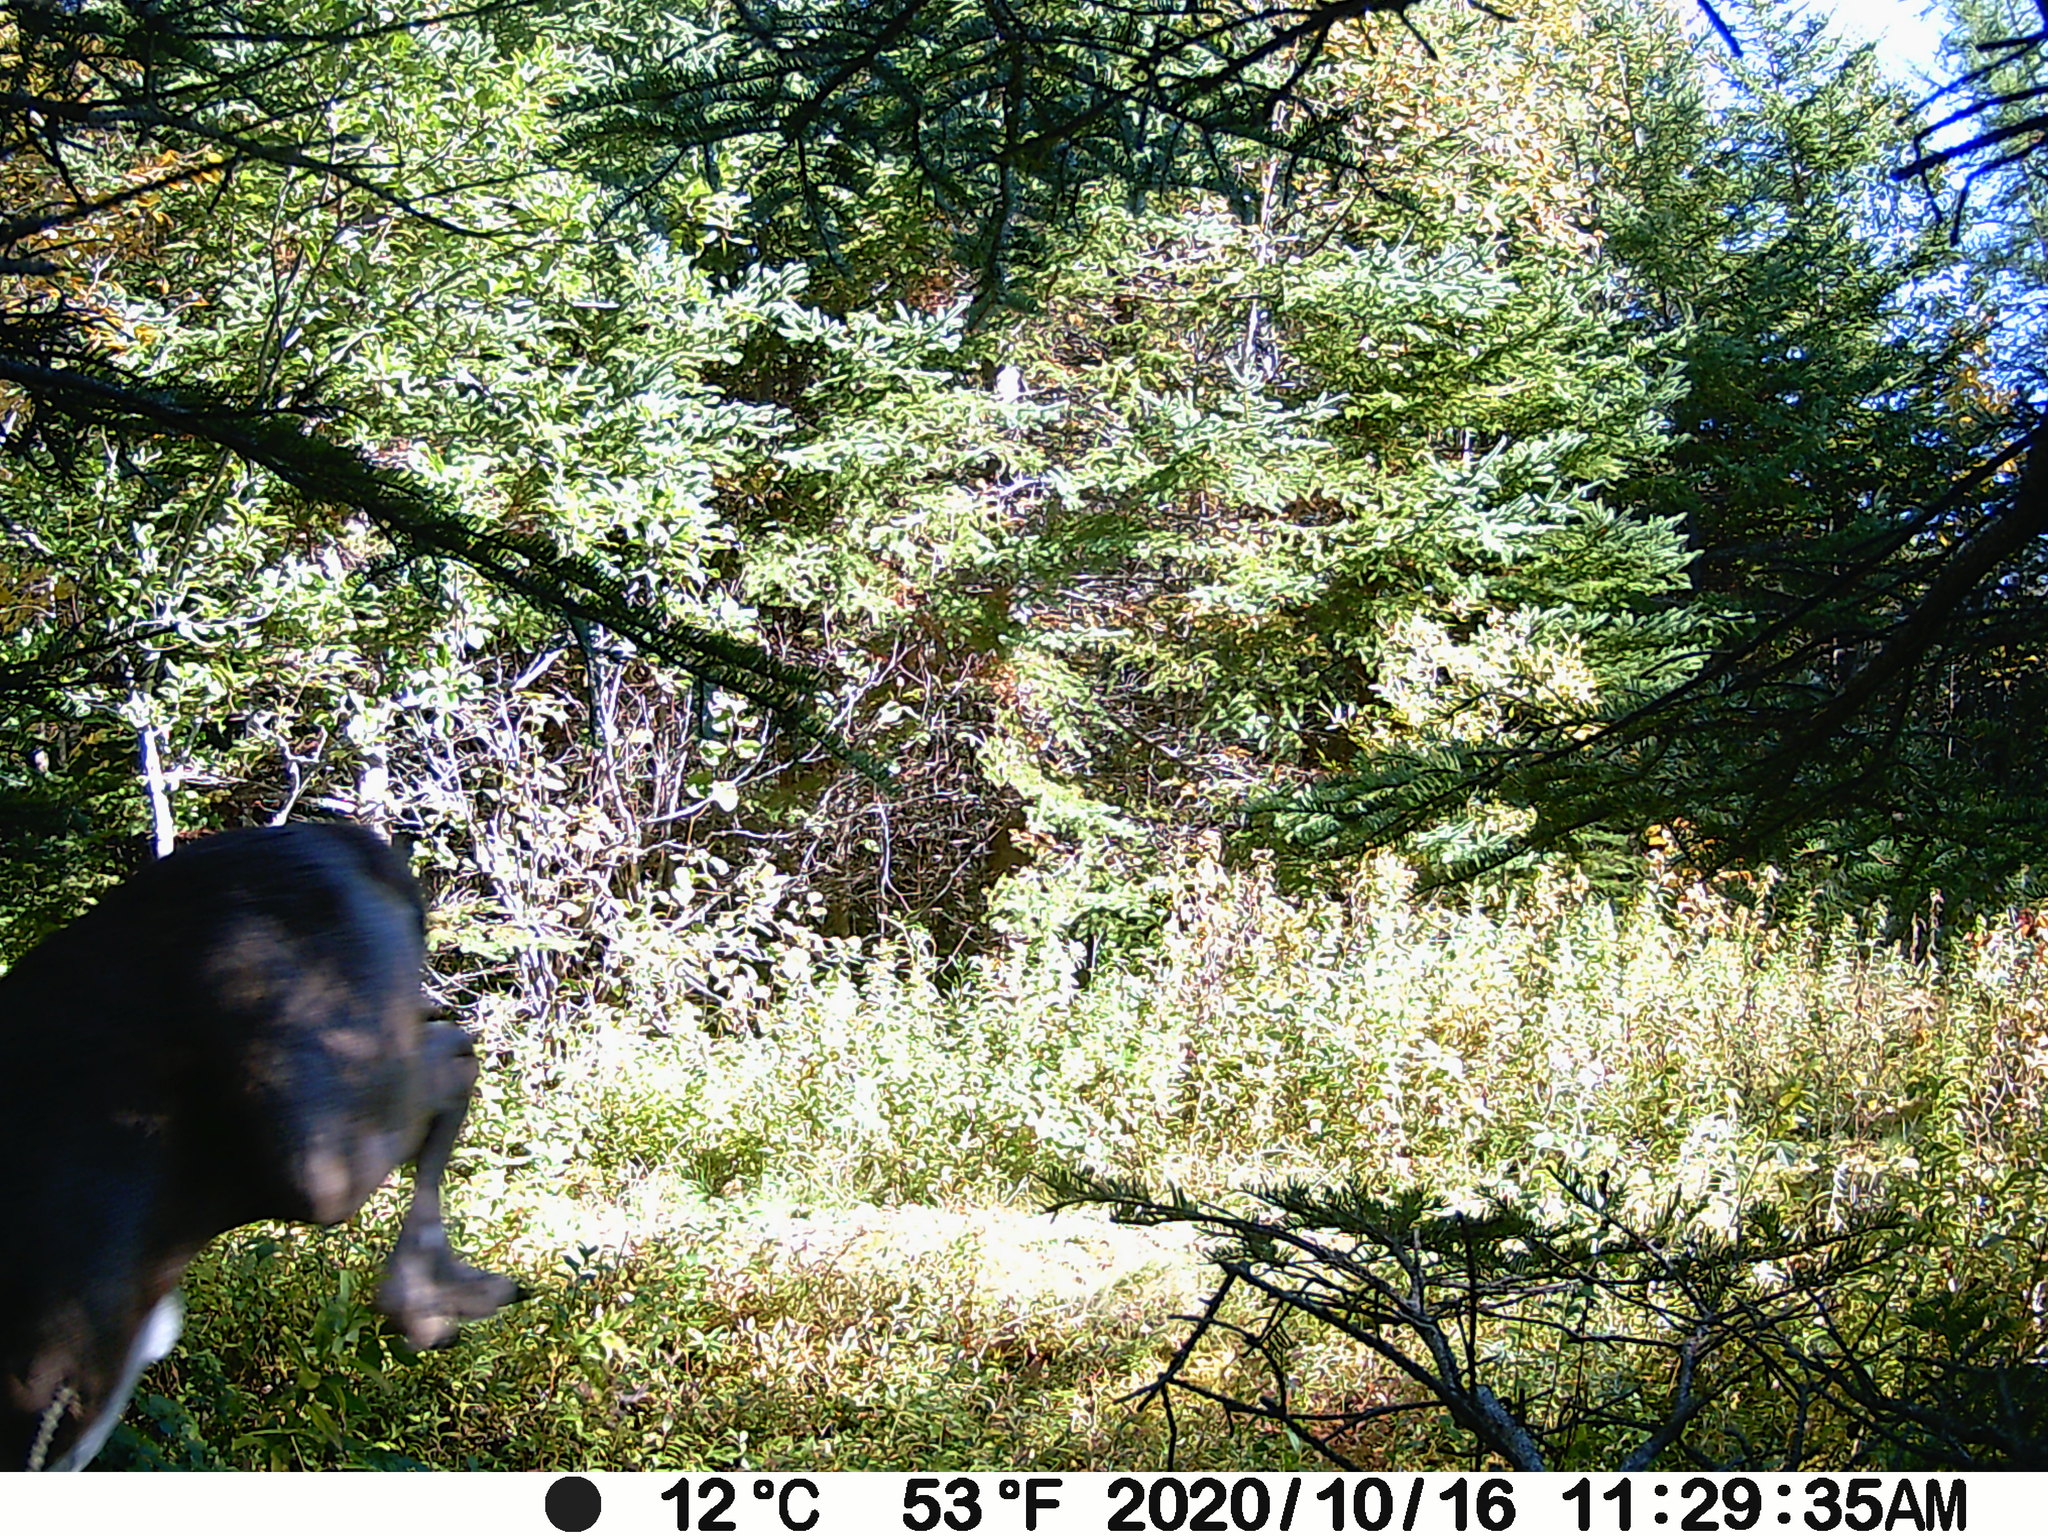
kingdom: Animalia
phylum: Chordata
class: Mammalia
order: Artiodactyla
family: Cervidae
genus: Odocoileus
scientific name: Odocoileus virginianus
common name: White-tailed deer
